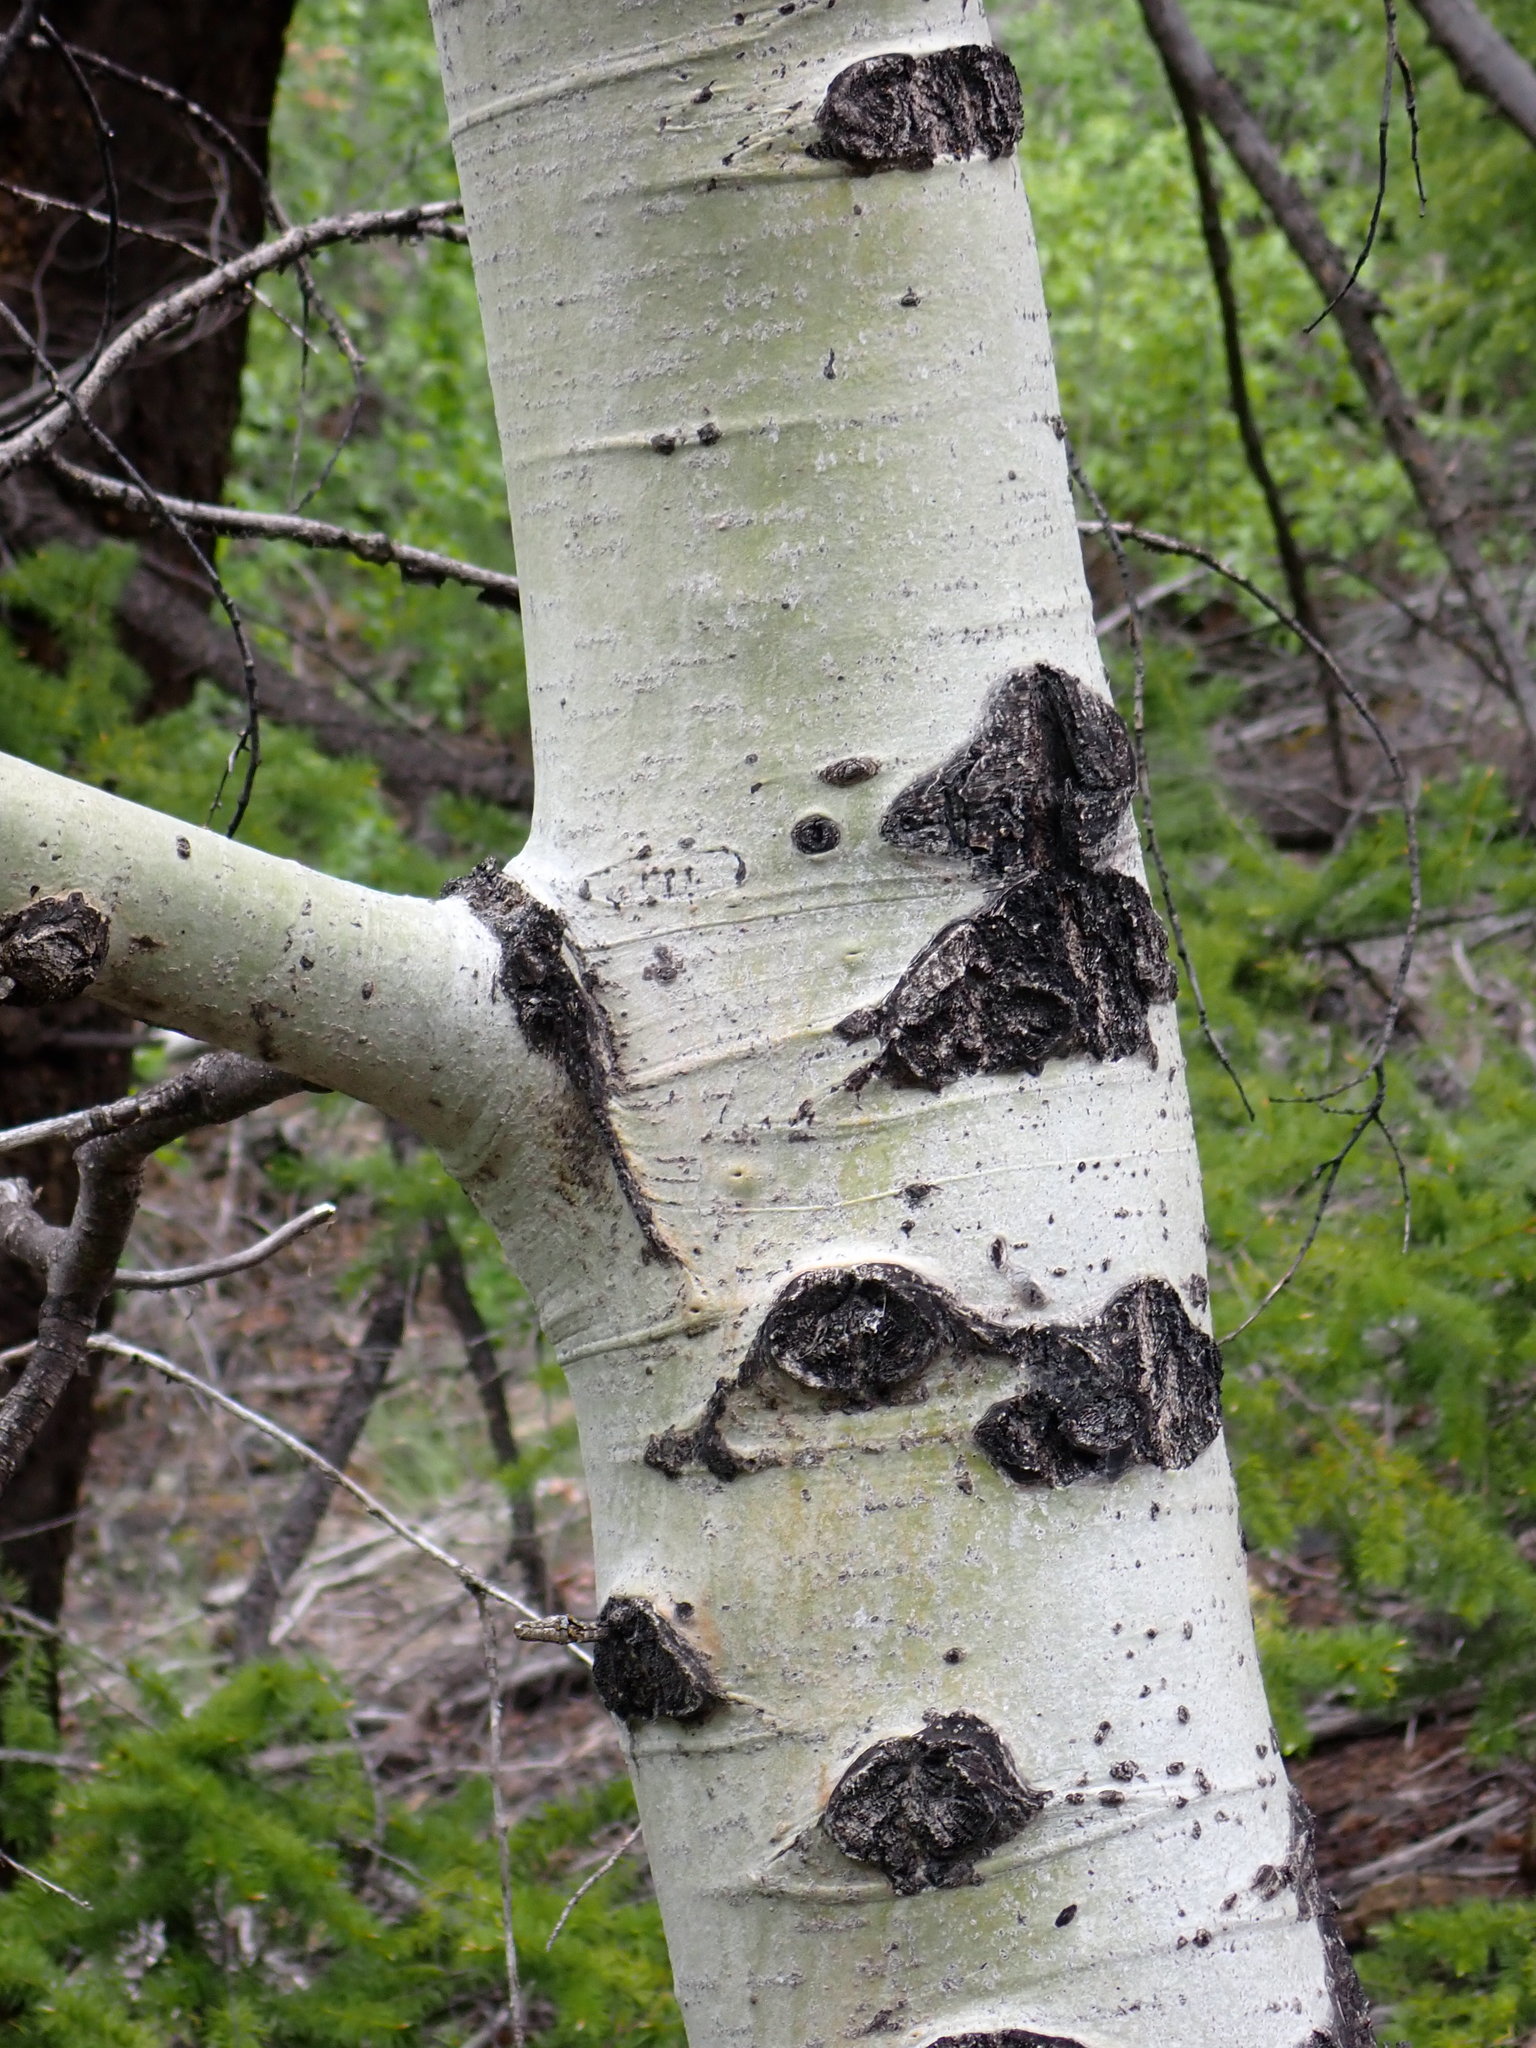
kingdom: Plantae
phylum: Tracheophyta
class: Magnoliopsida
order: Malpighiales
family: Salicaceae
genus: Populus
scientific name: Populus tremuloides
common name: Quaking aspen
